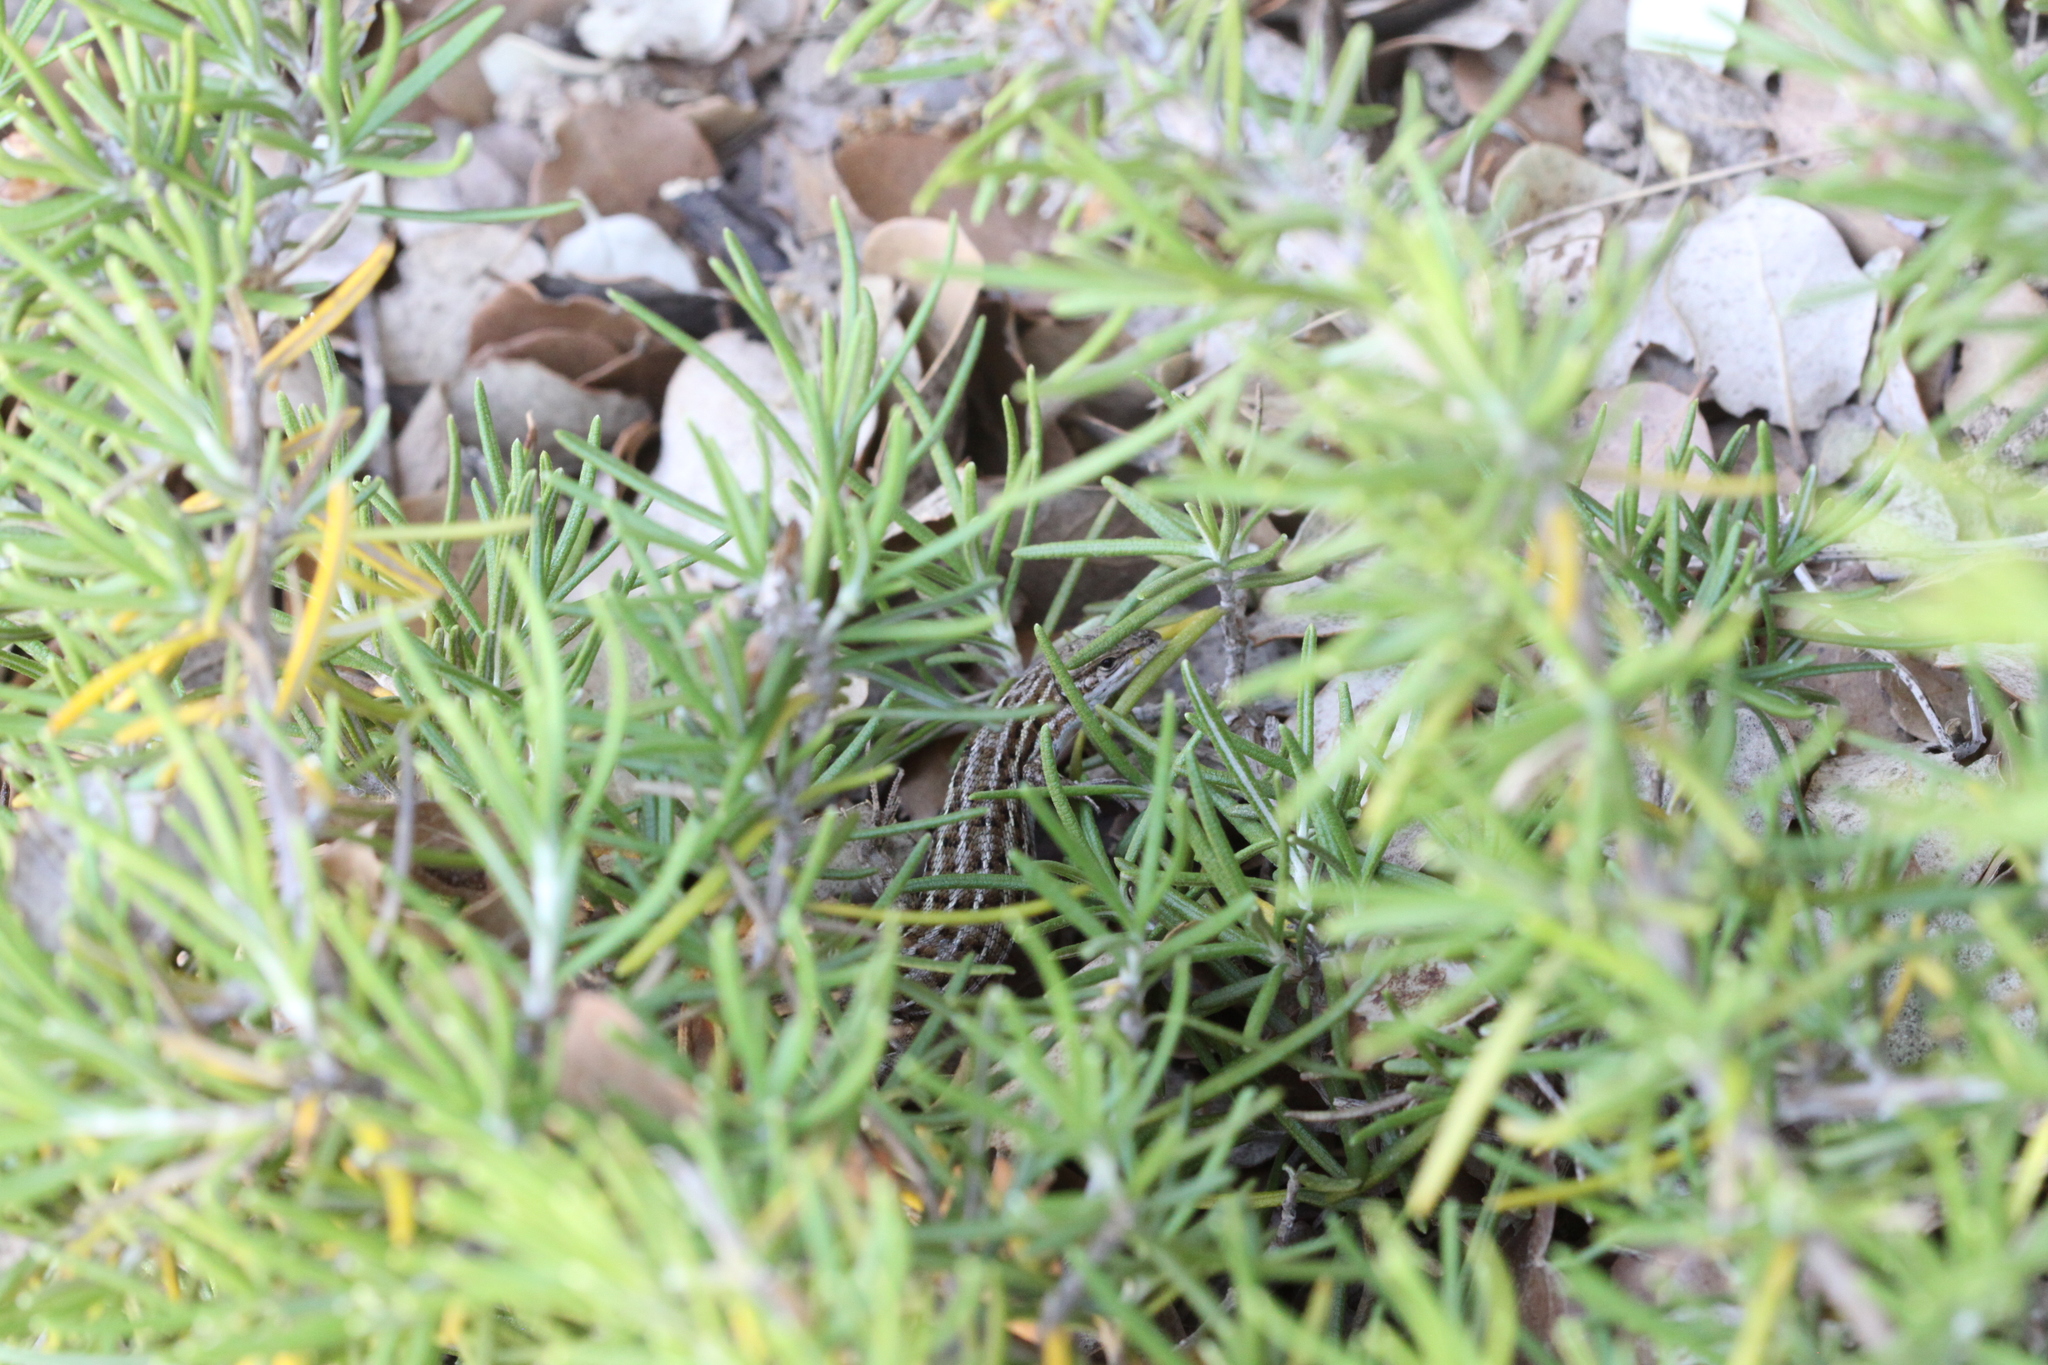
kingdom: Animalia
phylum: Chordata
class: Squamata
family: Lacertidae
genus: Psammodromus
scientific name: Psammodromus edwarsianus
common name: East iberian psammodromus
